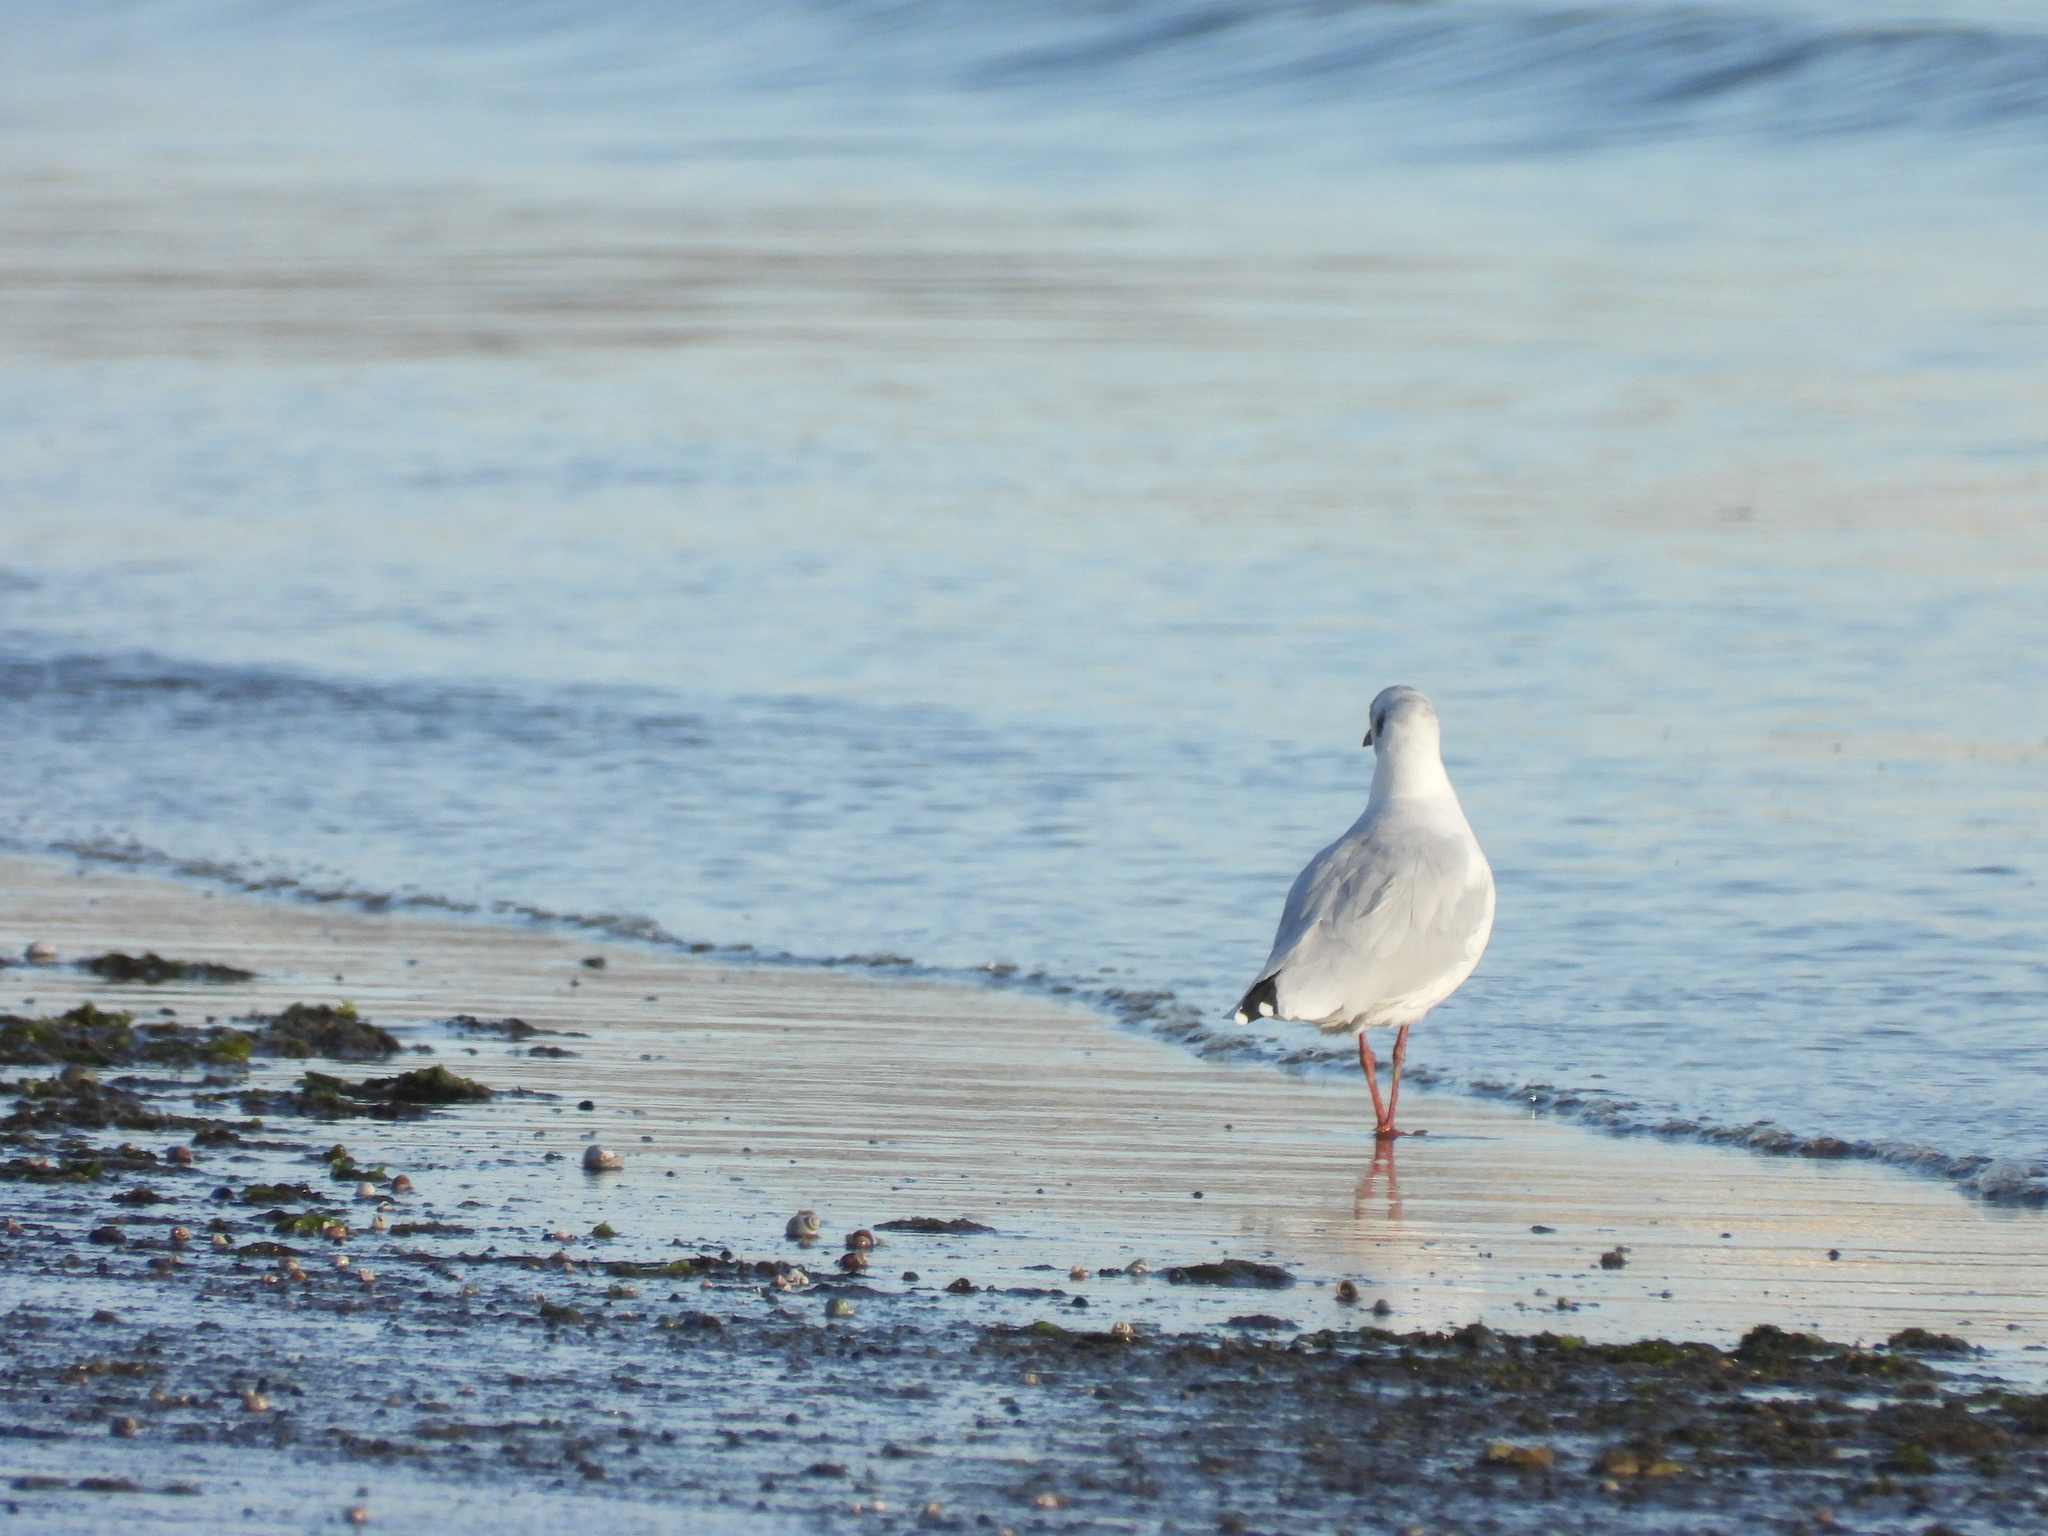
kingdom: Animalia
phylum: Chordata
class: Aves
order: Charadriiformes
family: Laridae
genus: Chroicocephalus
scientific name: Chroicocephalus maculipennis
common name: Brown-hooded gull
